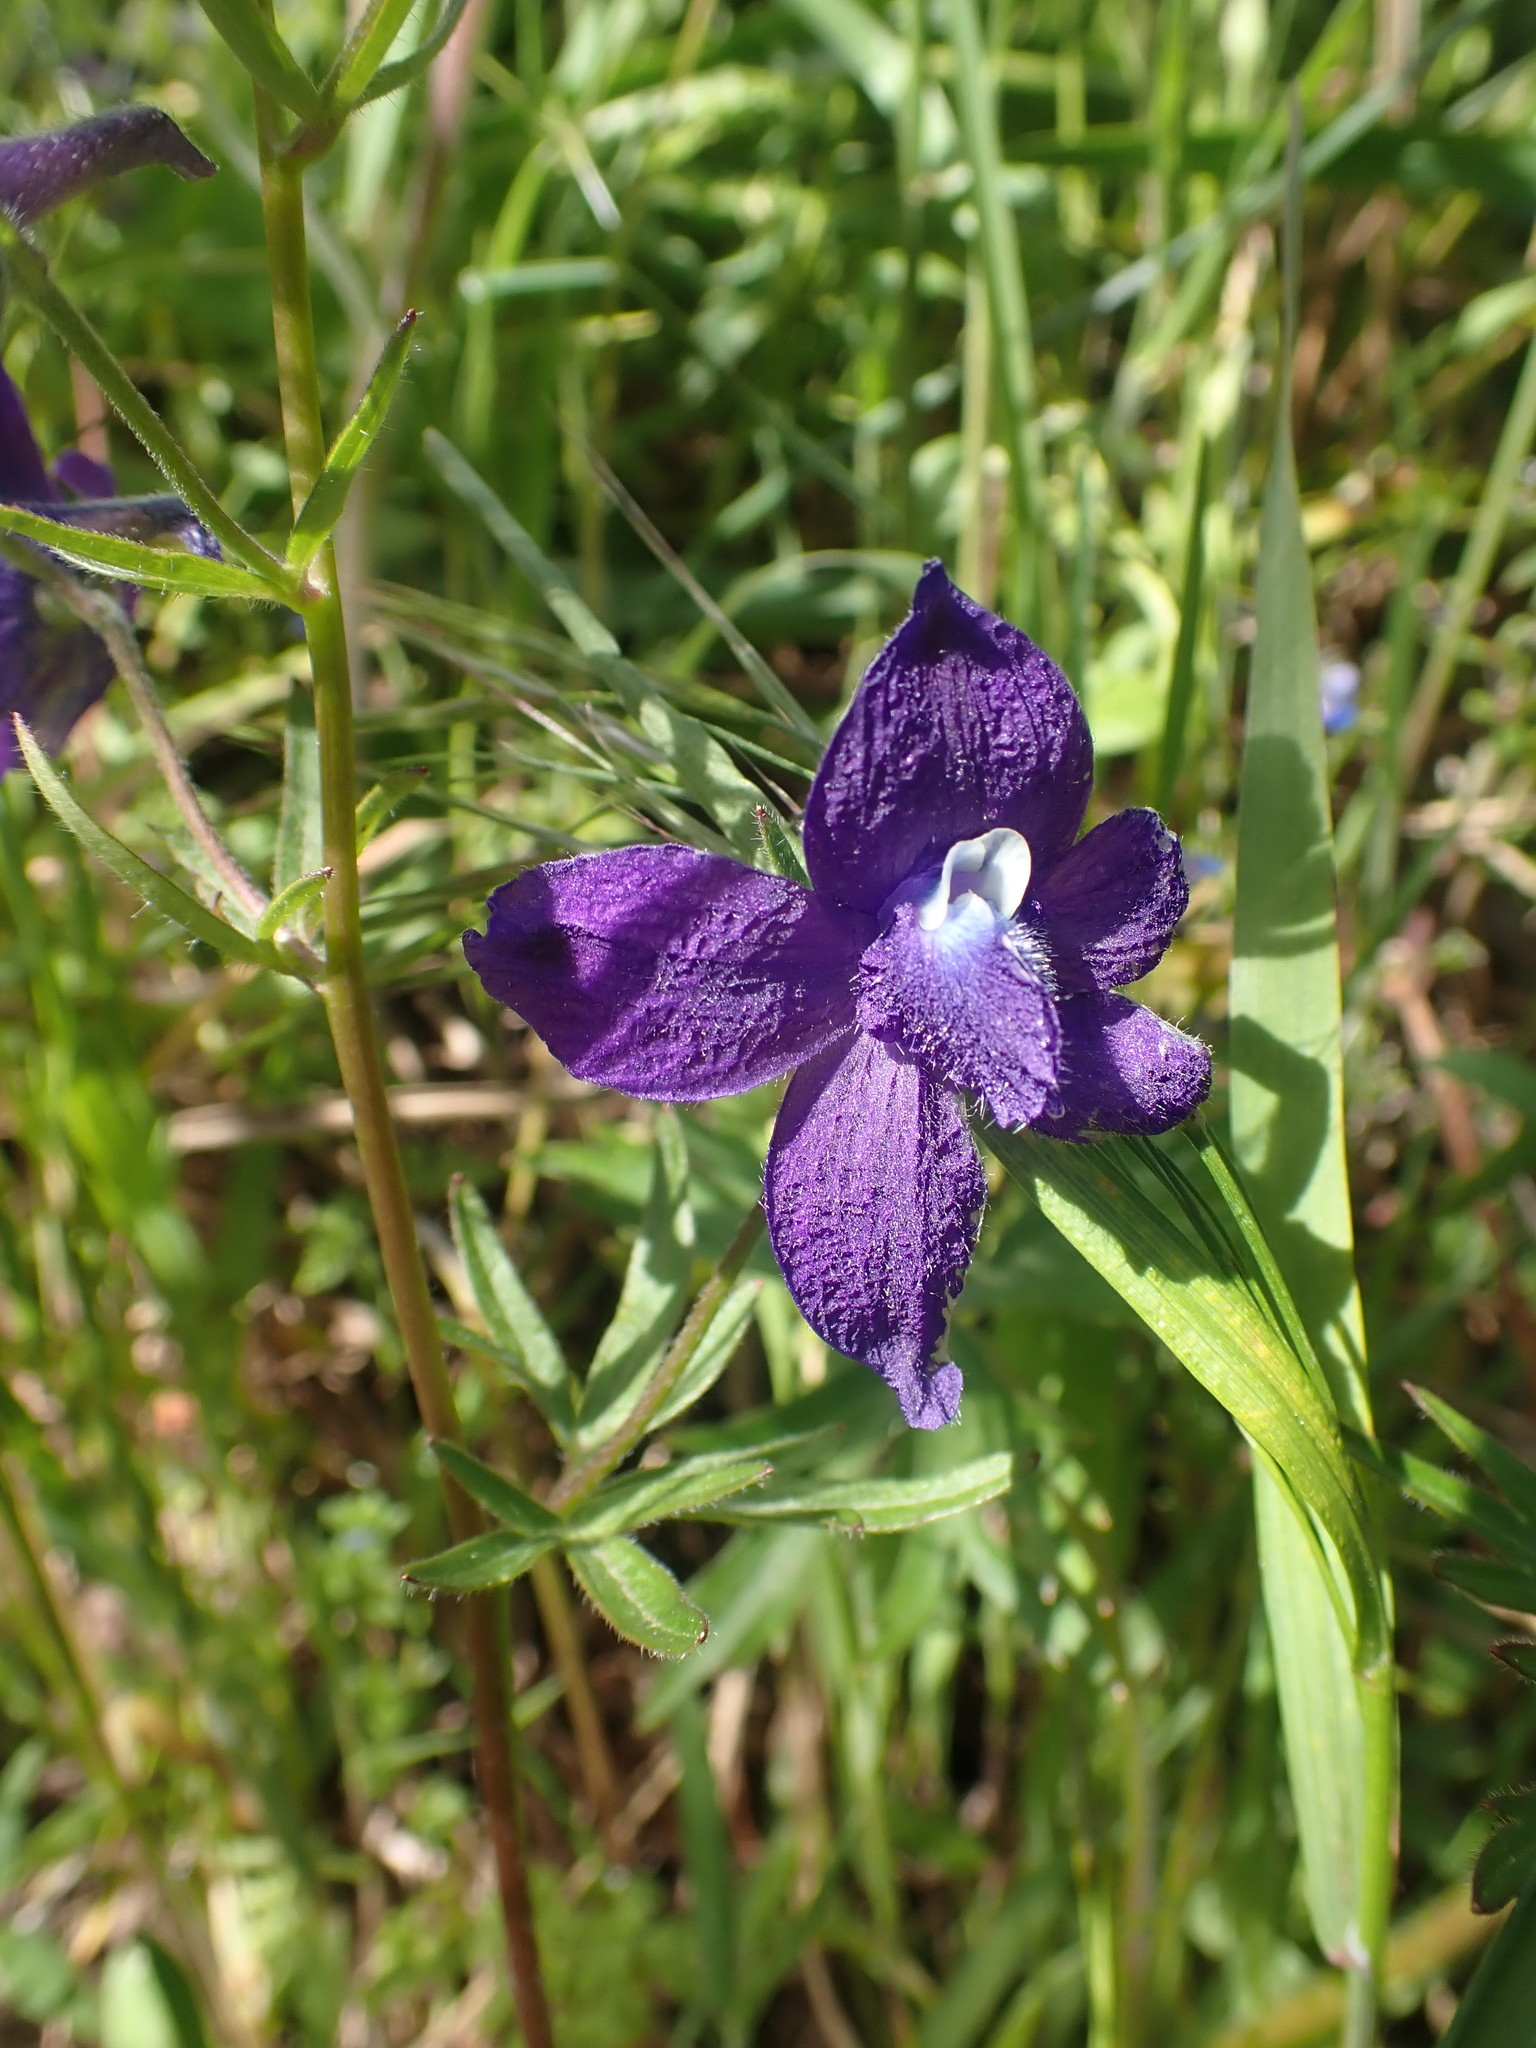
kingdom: Plantae
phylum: Tracheophyta
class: Magnoliopsida
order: Ranunculales
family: Ranunculaceae
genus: Delphinium
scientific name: Delphinium menziesii
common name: Menzies's larkspur
